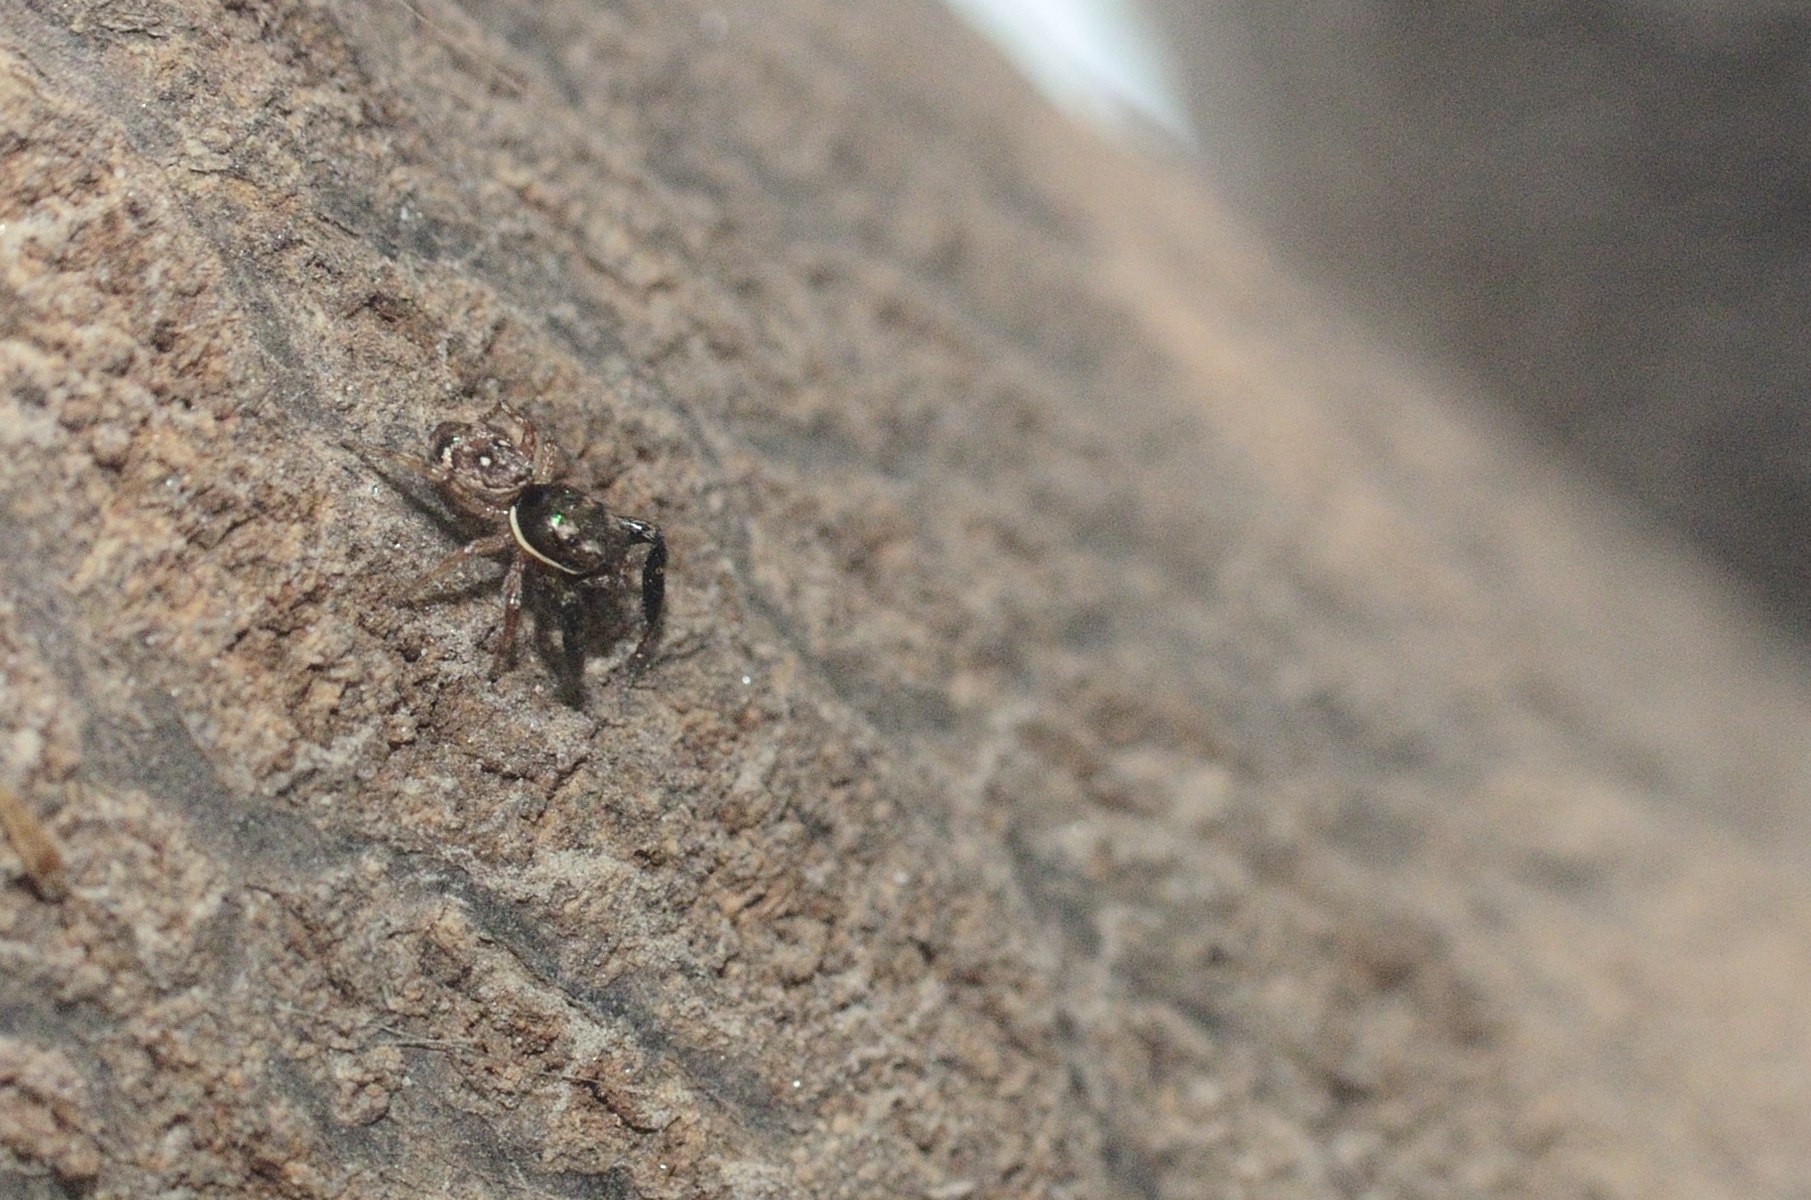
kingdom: Animalia
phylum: Arthropoda
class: Arachnida
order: Araneae
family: Salticidae
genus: Icius
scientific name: Icius alboterminus
